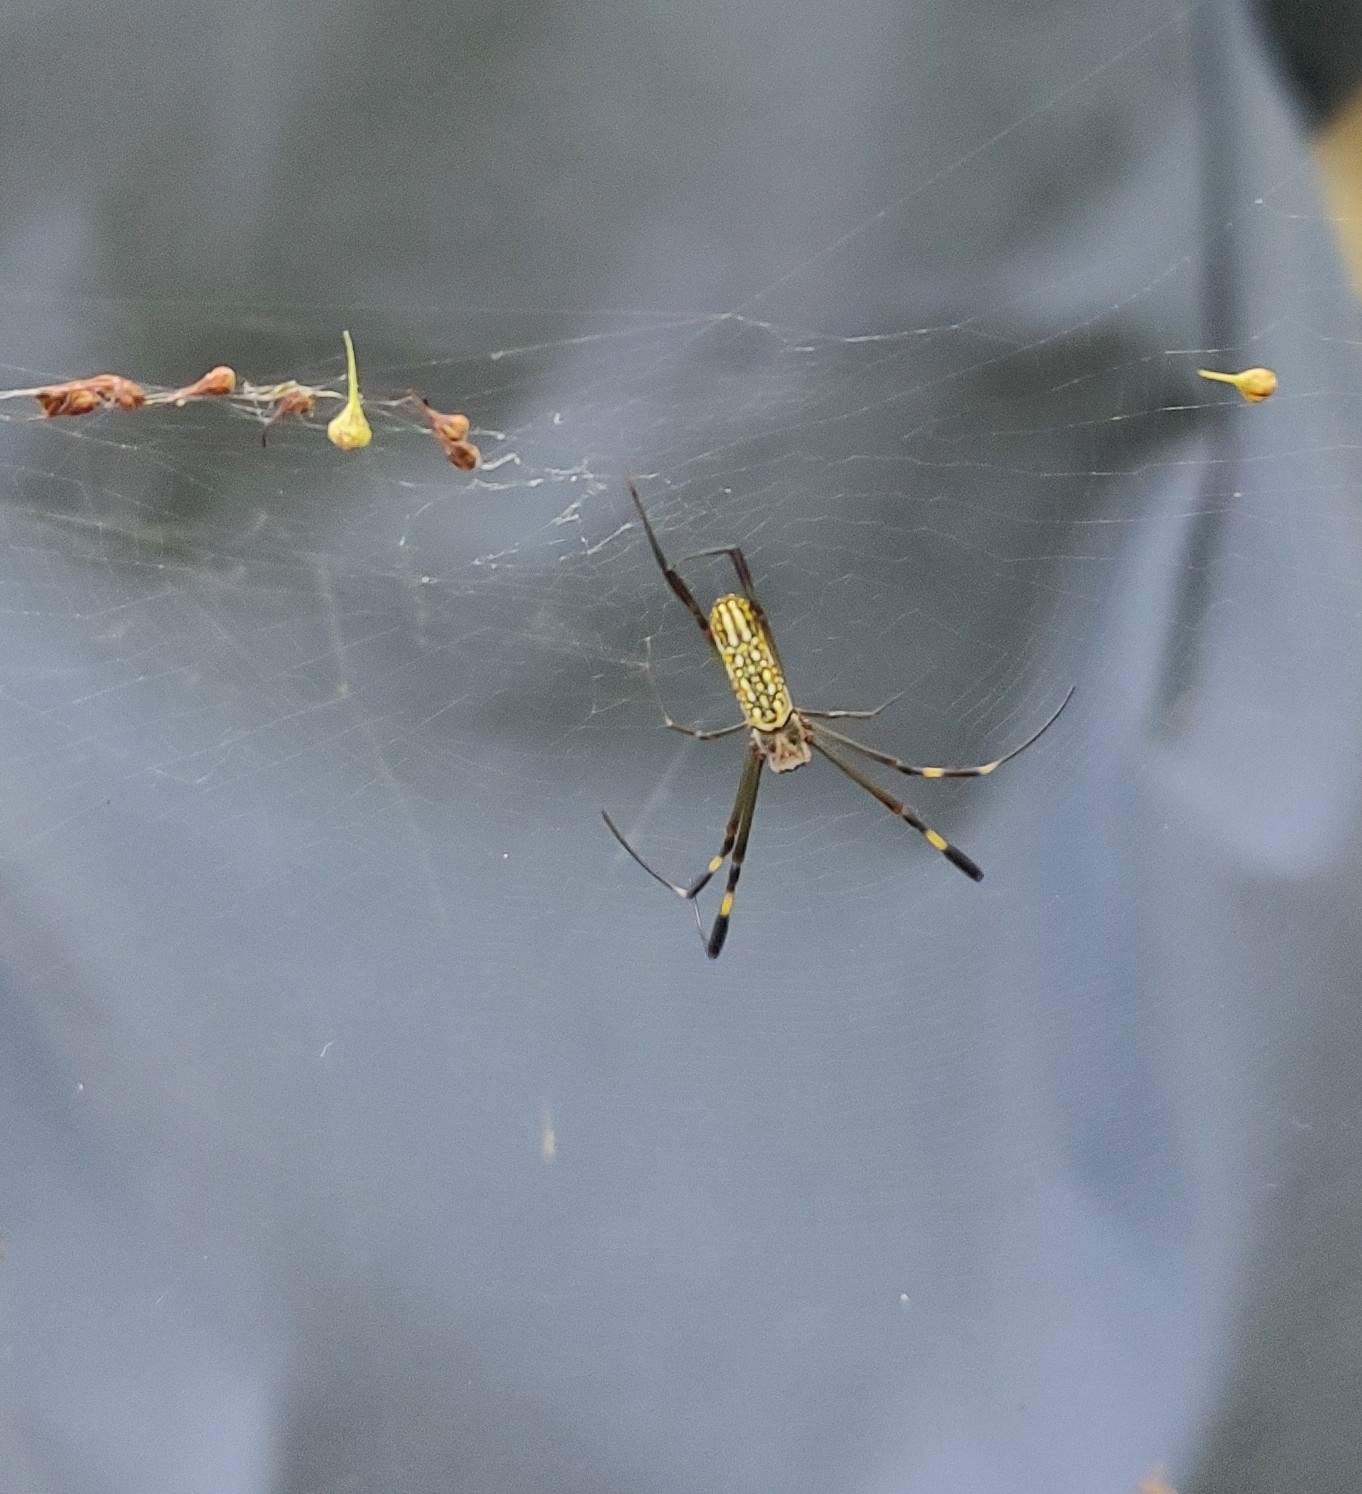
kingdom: Animalia
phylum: Arthropoda
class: Arachnida
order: Araneae
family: Araneidae
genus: Trichonephila
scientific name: Trichonephila clavipes
